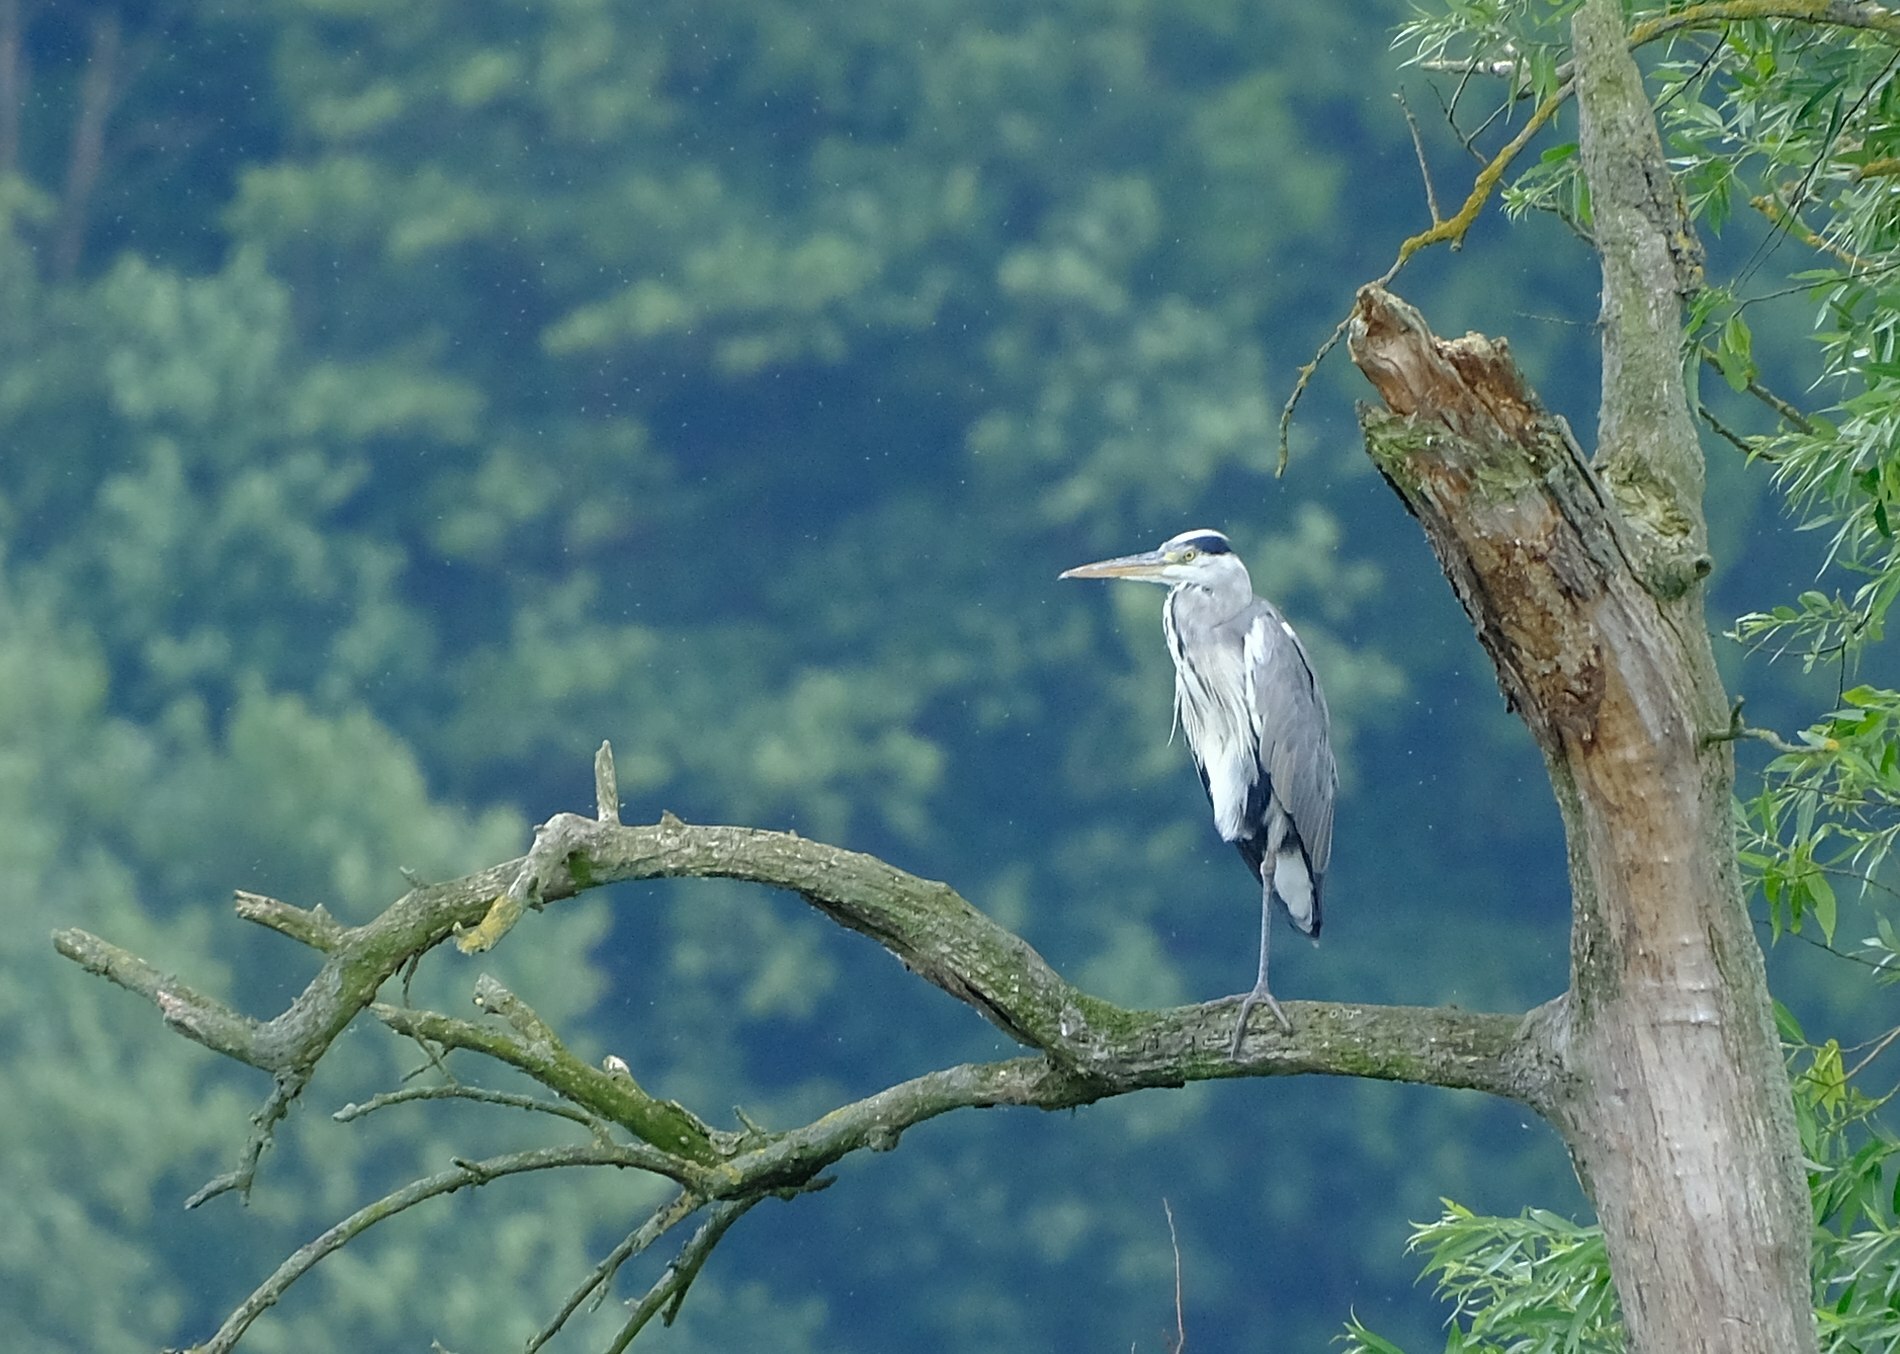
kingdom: Animalia
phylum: Chordata
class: Aves
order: Pelecaniformes
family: Ardeidae
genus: Ardea
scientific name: Ardea cinerea
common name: Grey heron
